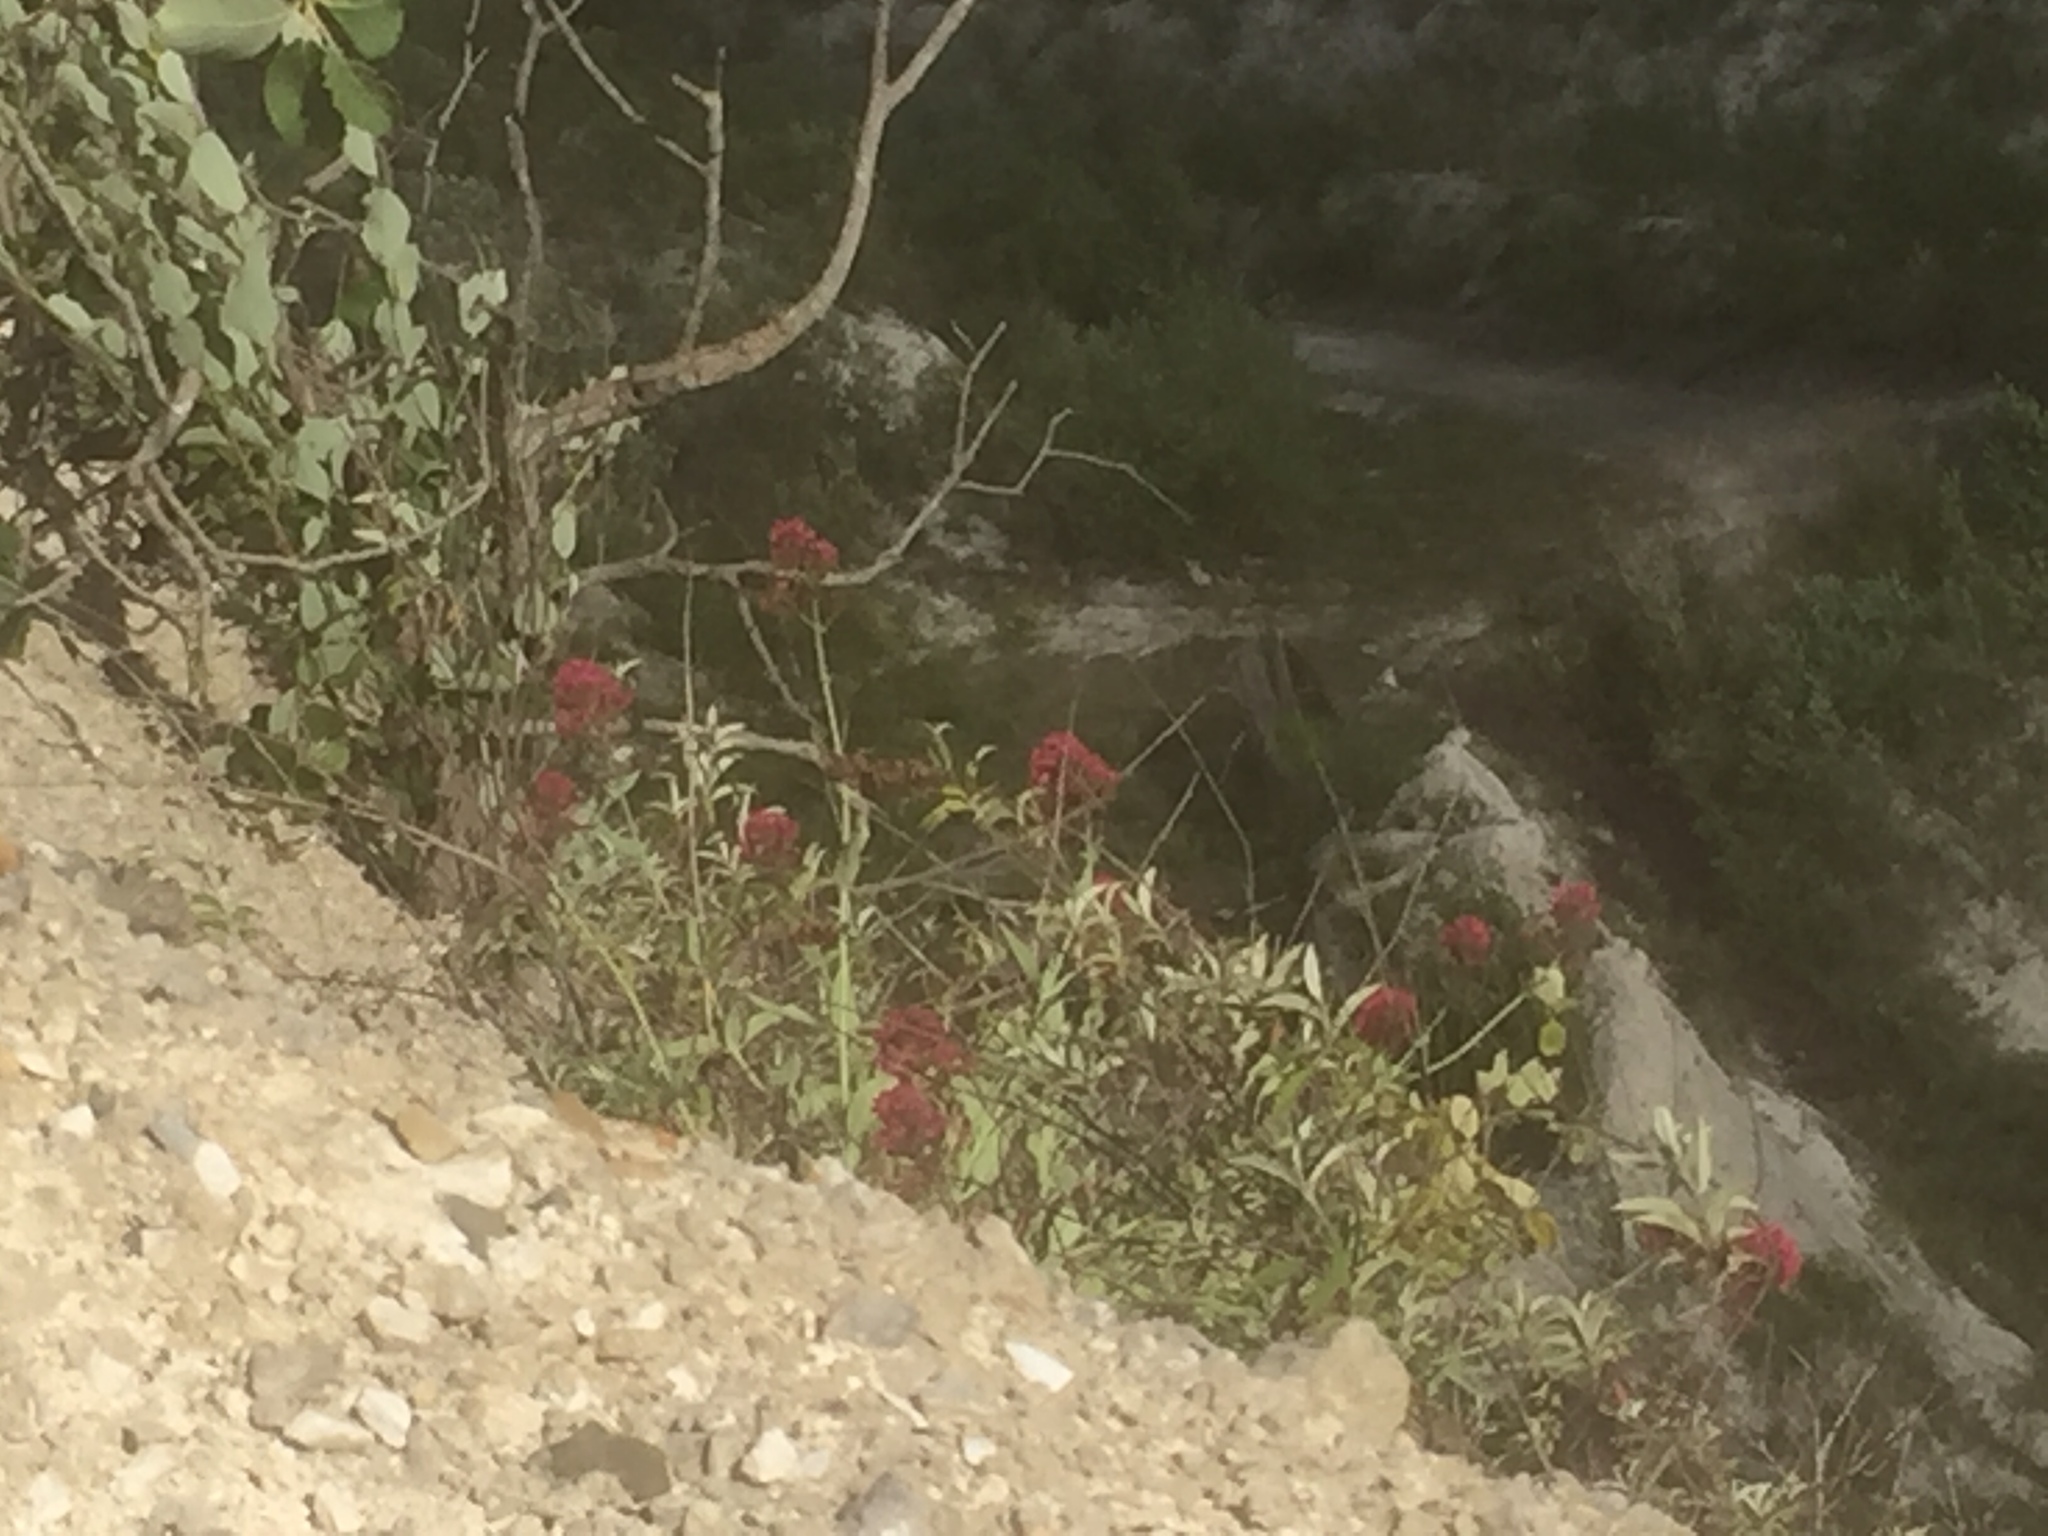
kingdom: Plantae
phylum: Tracheophyta
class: Magnoliopsida
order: Dipsacales
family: Caprifoliaceae
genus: Centranthus
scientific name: Centranthus ruber
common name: Red valerian
